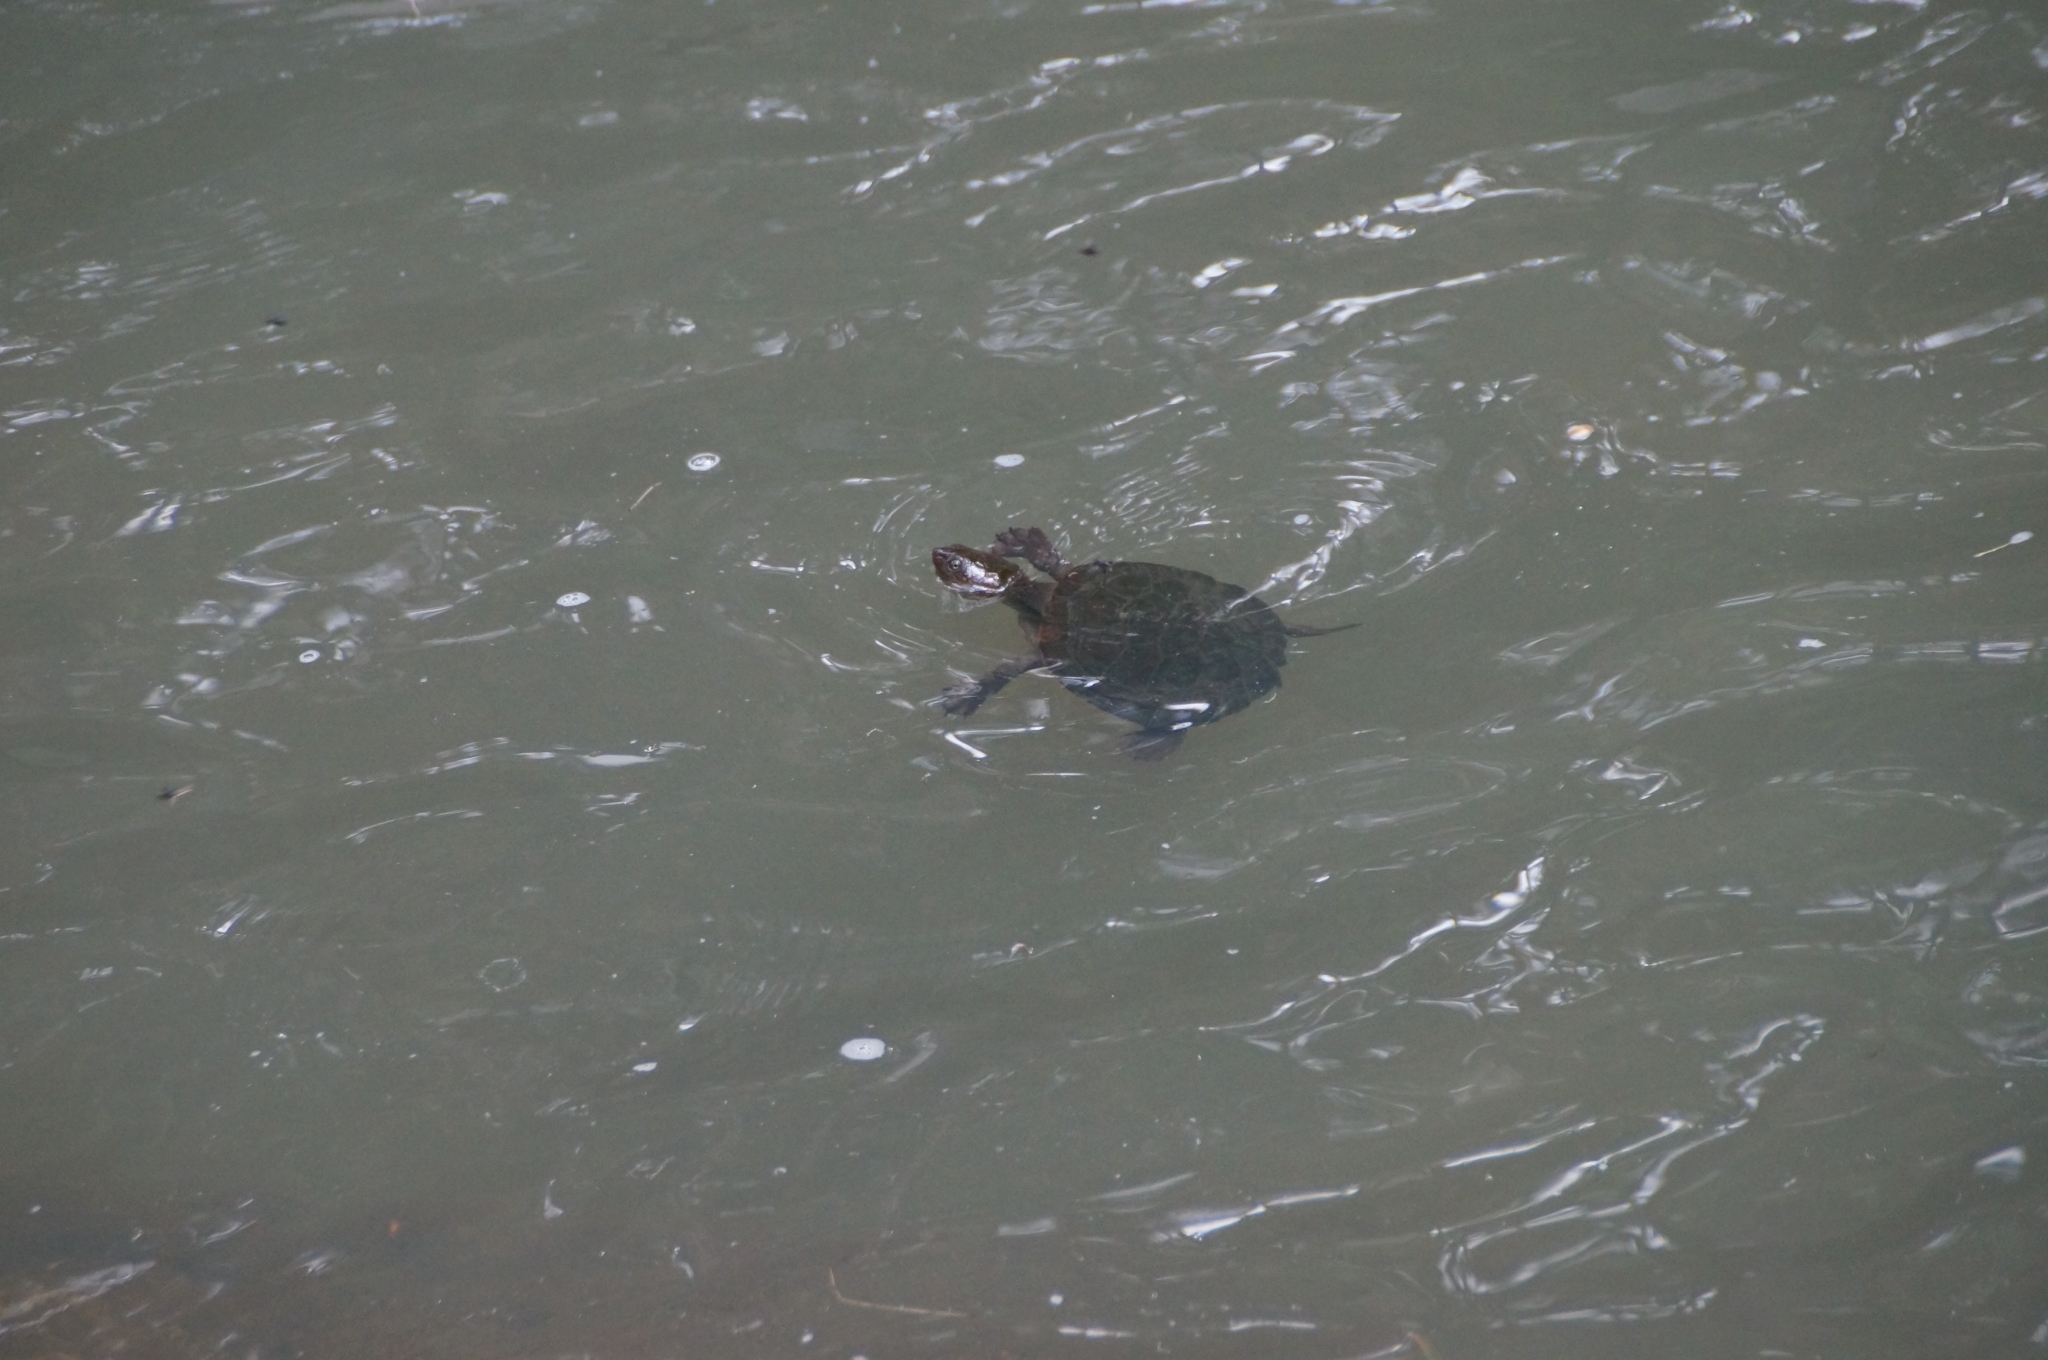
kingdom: Animalia
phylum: Chordata
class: Testudines
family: Chelidae
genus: Myuchelys
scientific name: Myuchelys latisternum
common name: Serrated snapping turtle
